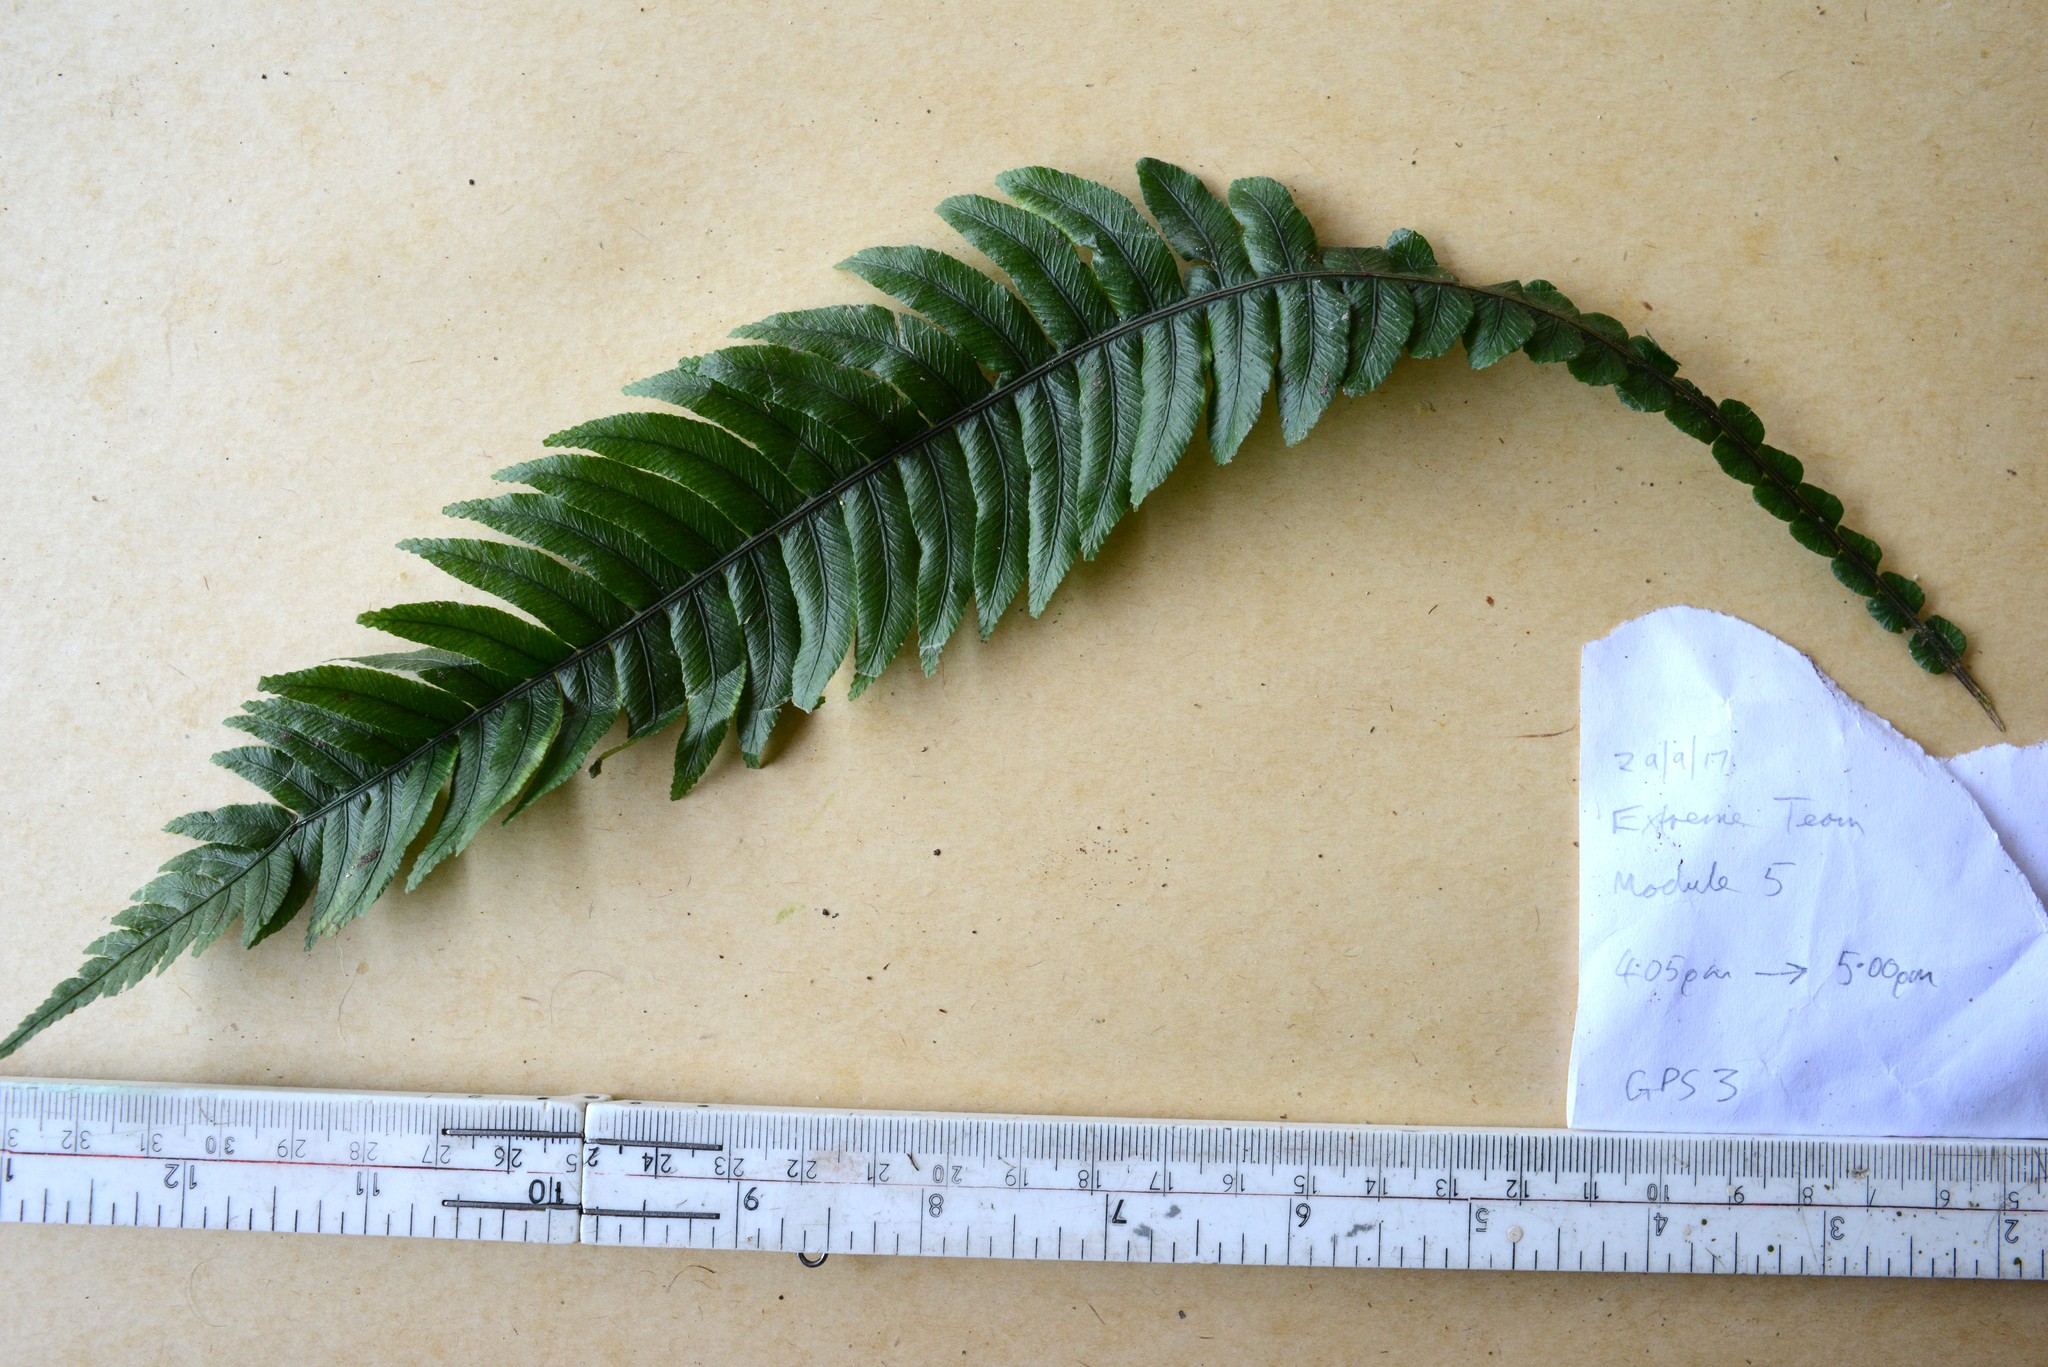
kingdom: Plantae
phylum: Tracheophyta
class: Polypodiopsida
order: Polypodiales
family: Blechnaceae
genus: Austroblechnum
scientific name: Austroblechnum lanceolatum
